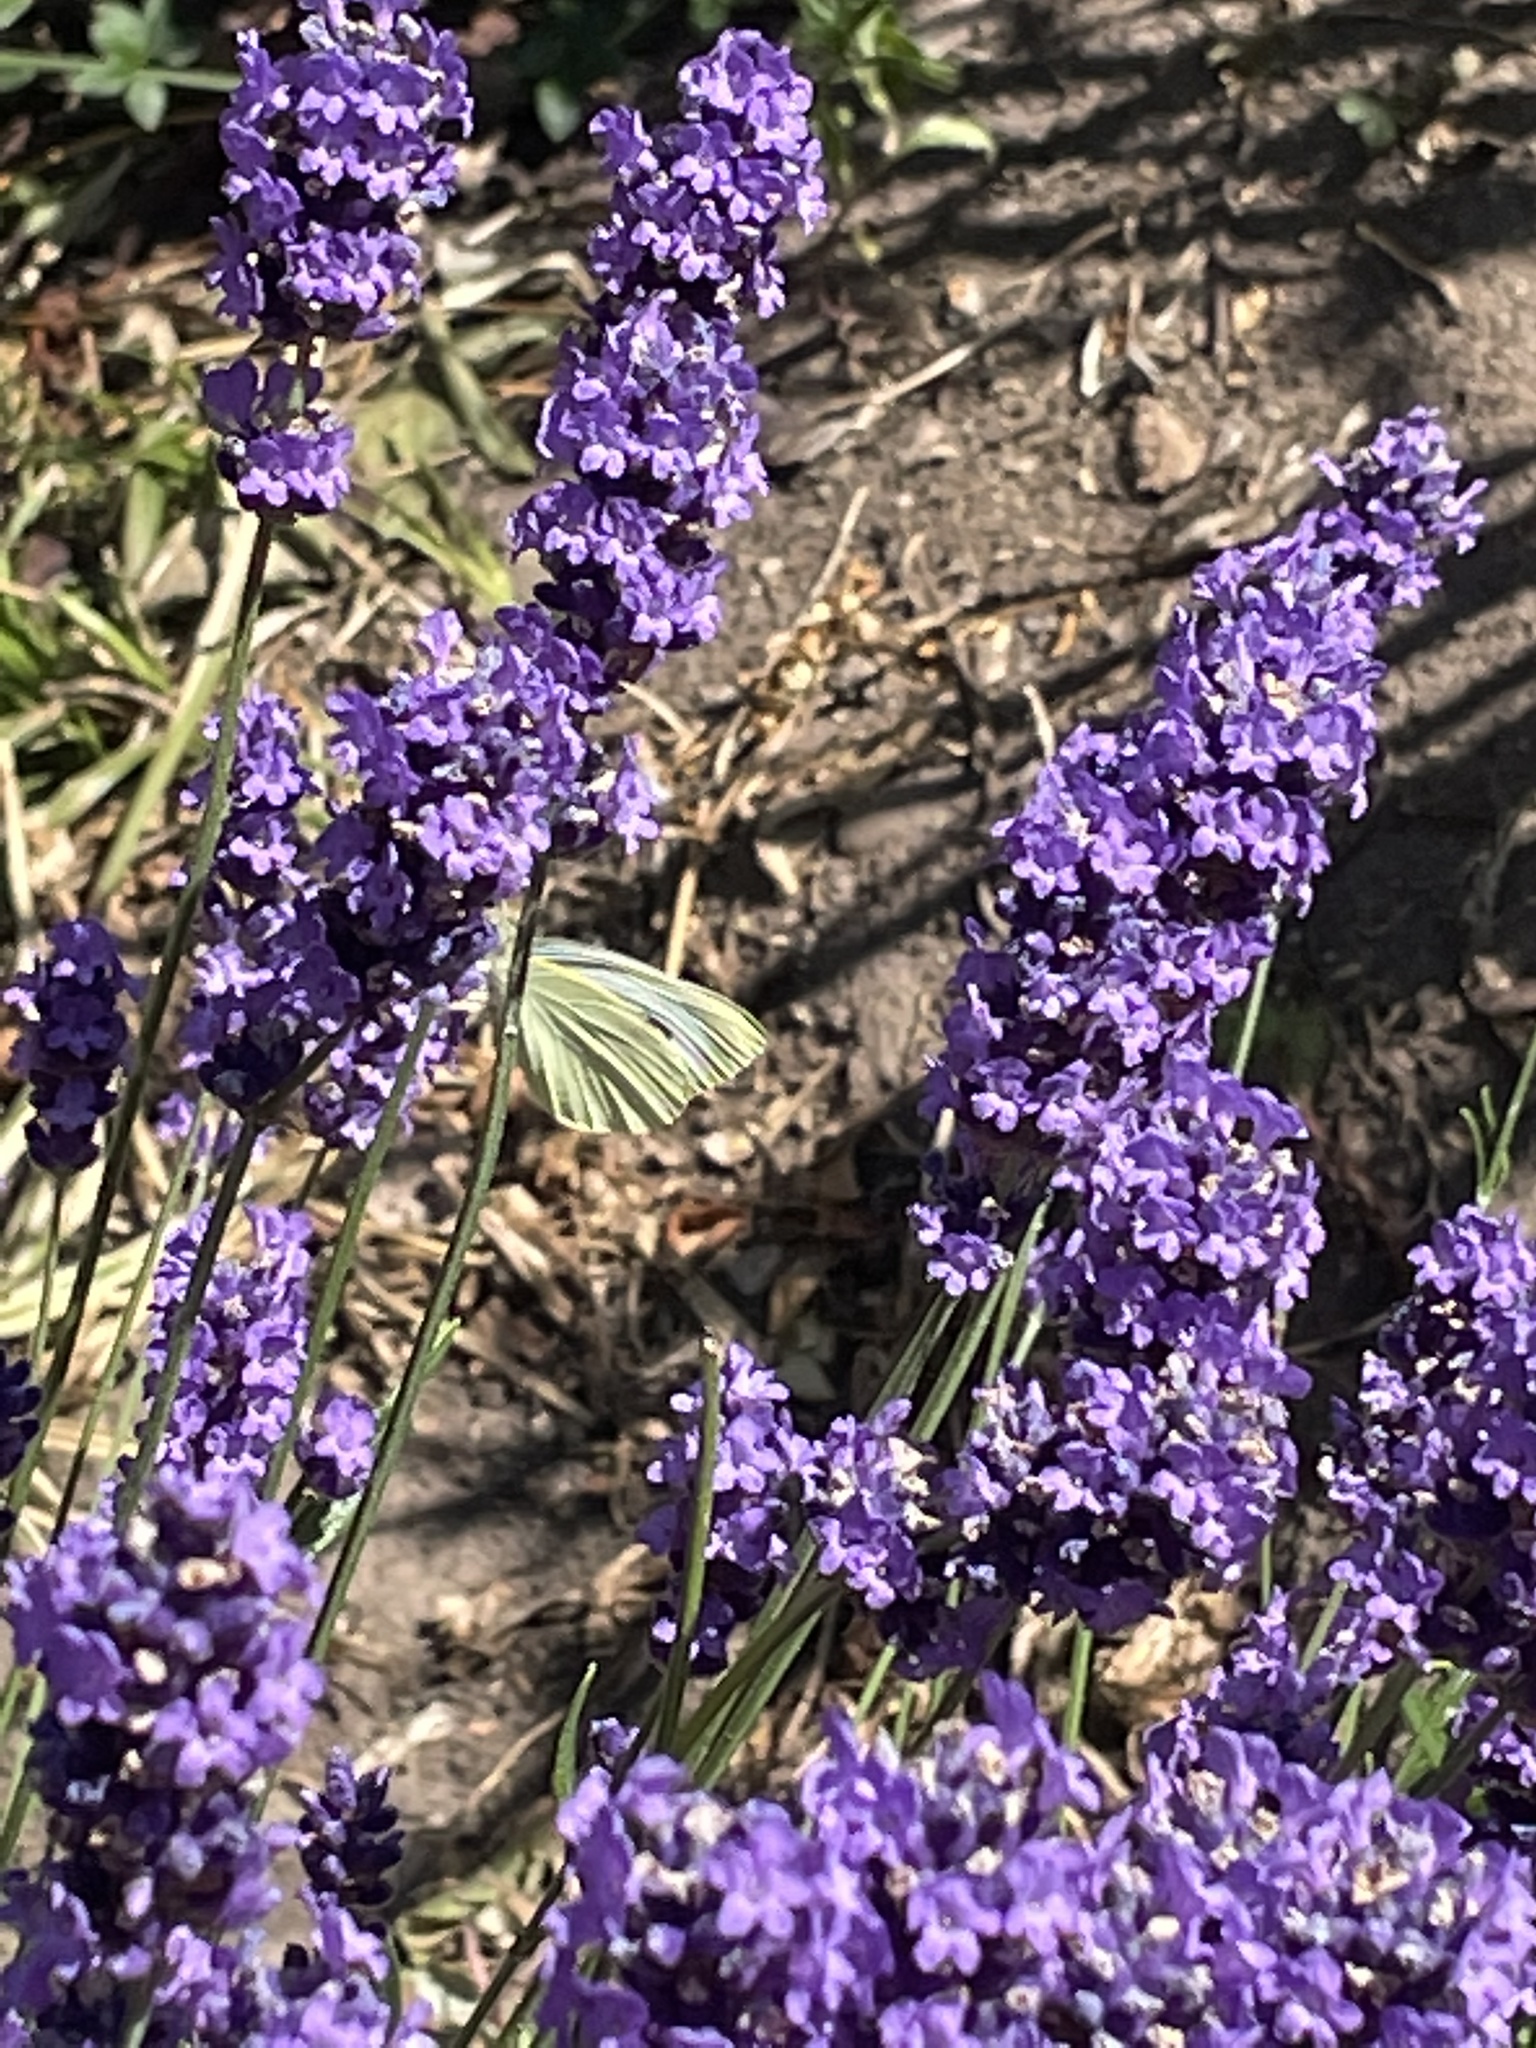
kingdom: Animalia
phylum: Arthropoda
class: Insecta
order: Lepidoptera
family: Pieridae
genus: Pieris
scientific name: Pieris rapae
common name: Small white
